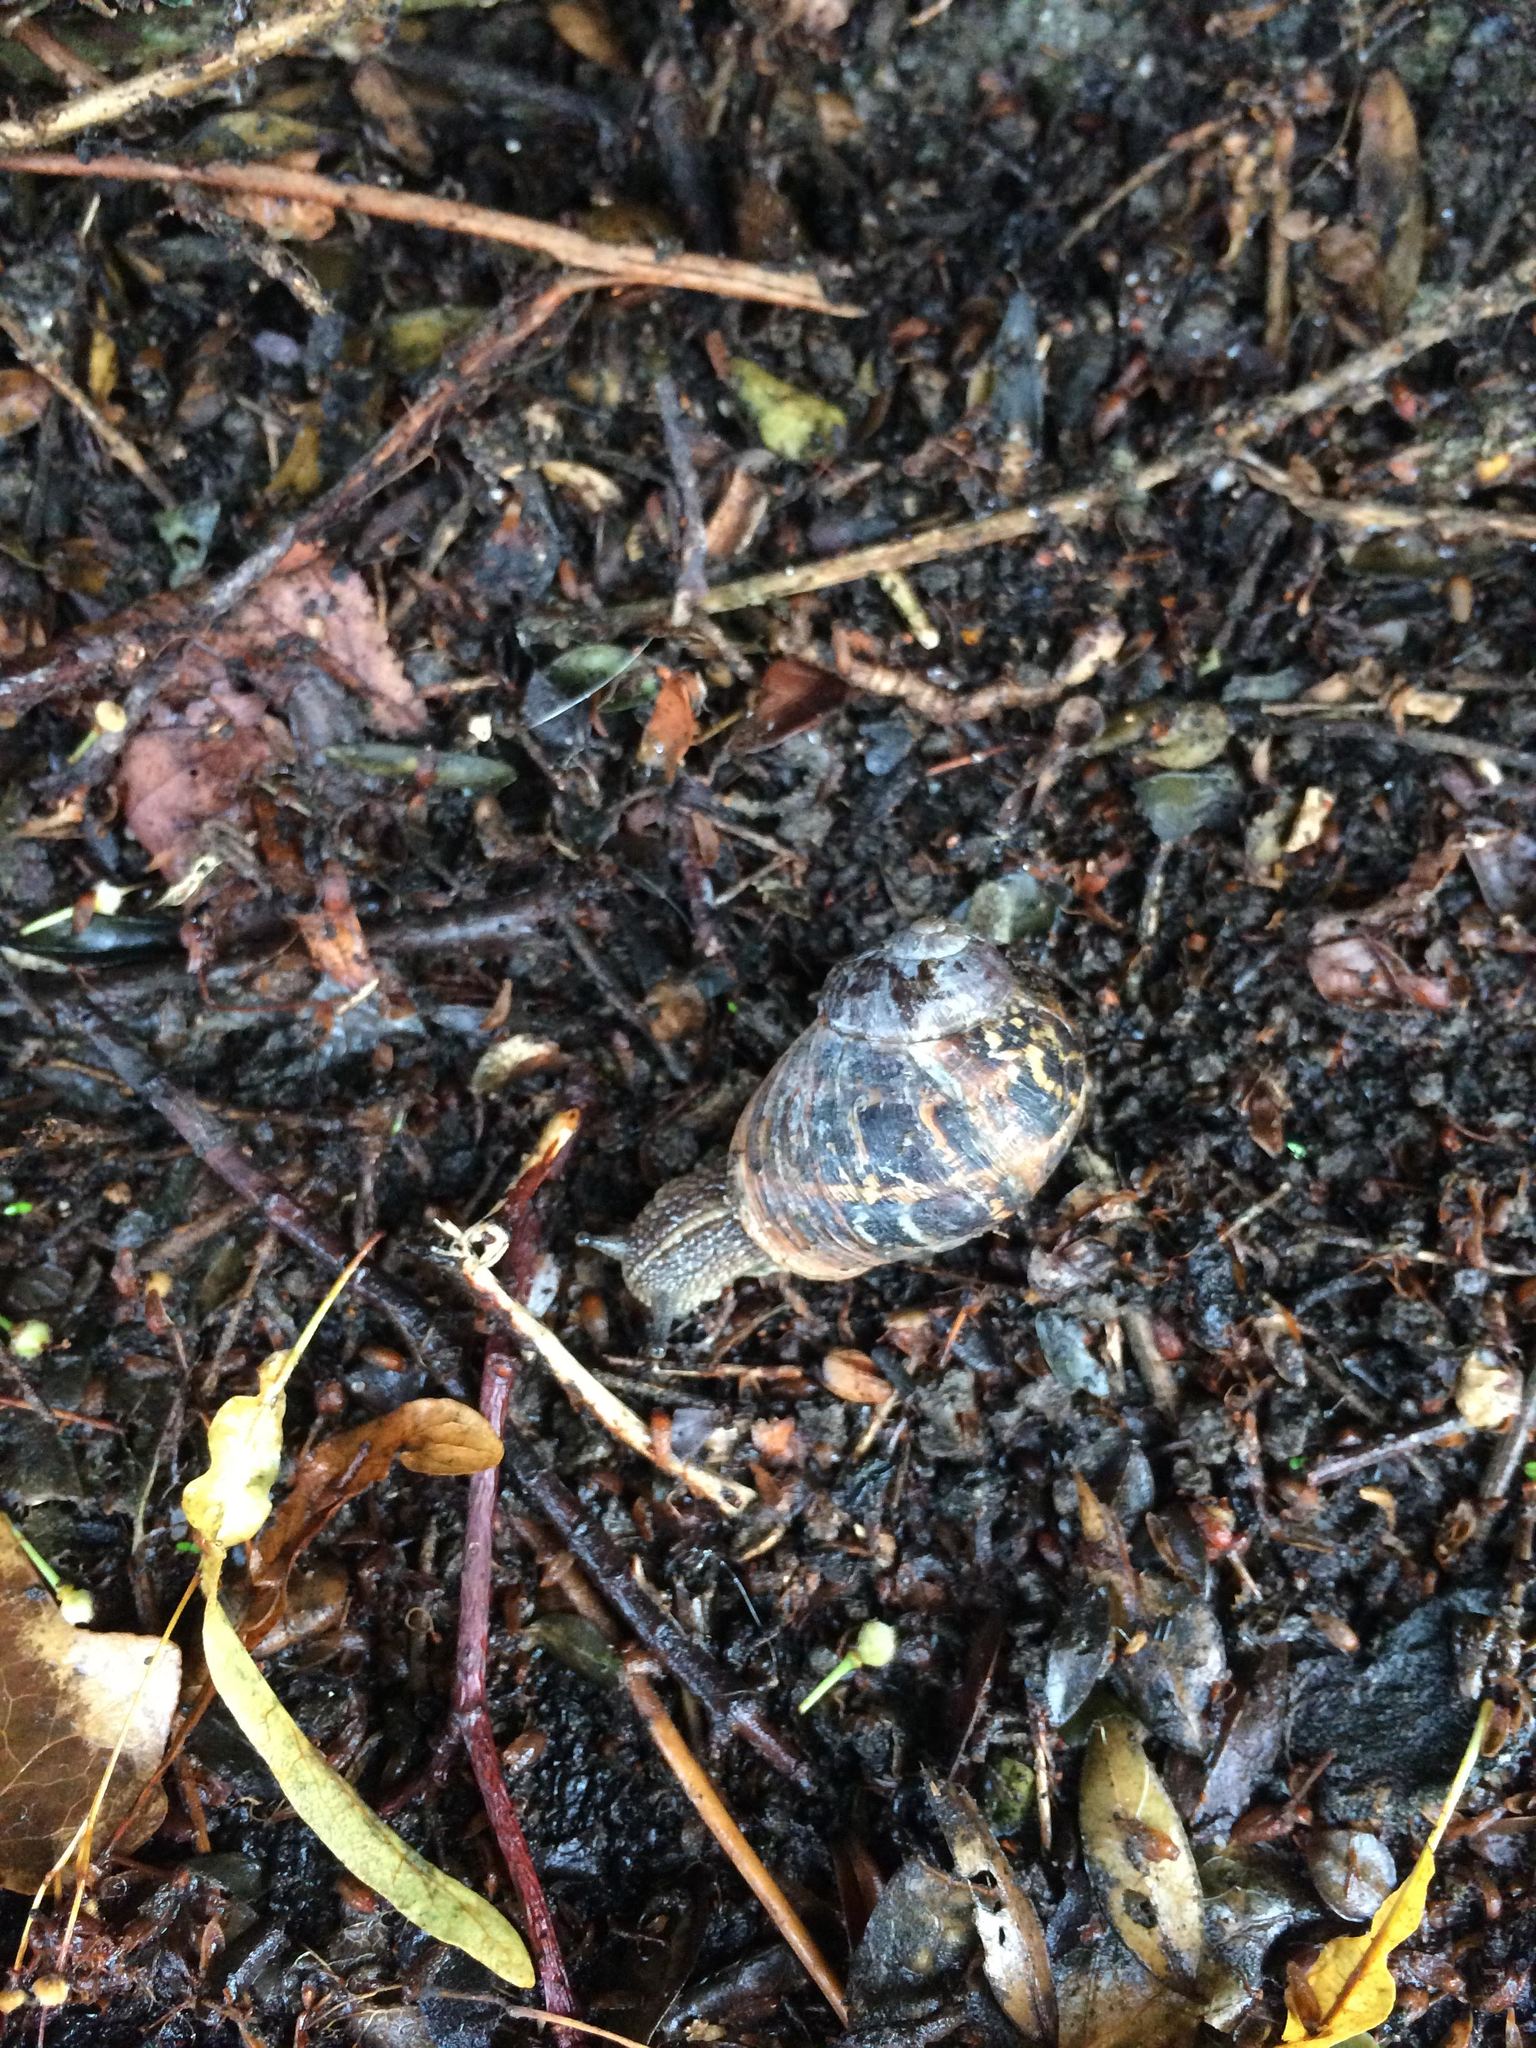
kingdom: Animalia
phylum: Mollusca
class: Gastropoda
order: Stylommatophora
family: Helicidae
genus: Cornu
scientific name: Cornu aspersum
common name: Brown garden snail
